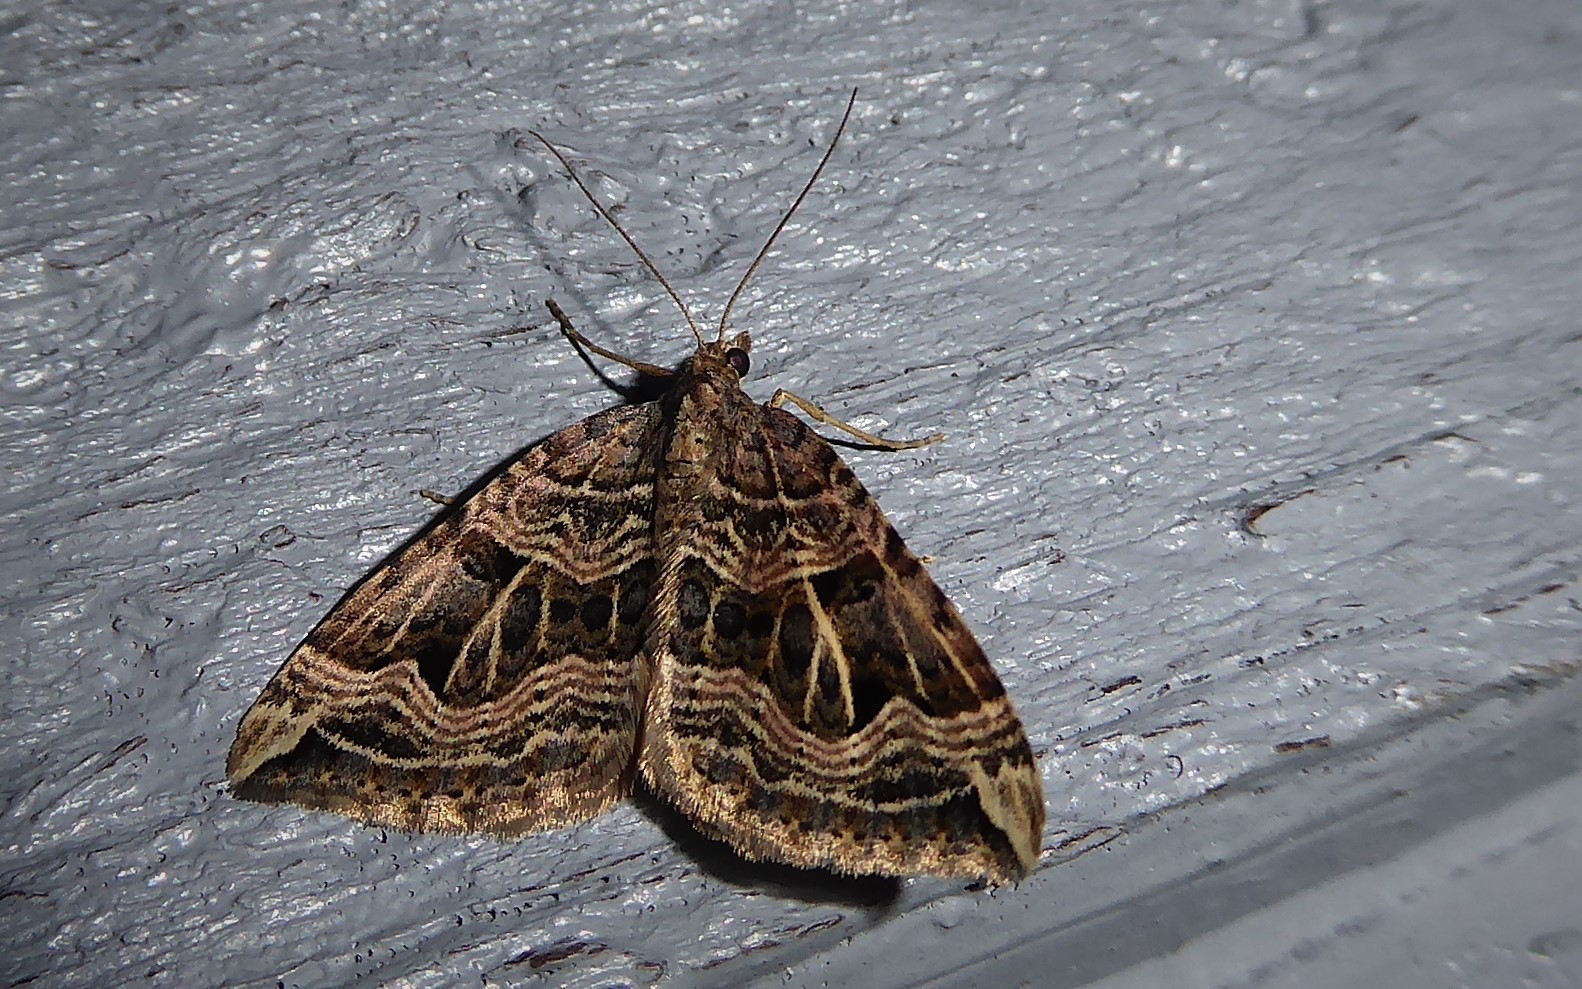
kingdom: Animalia
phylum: Arthropoda
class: Insecta
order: Lepidoptera
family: Geometridae
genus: Xanthorhoe
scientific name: Xanthorhoe semifissata
